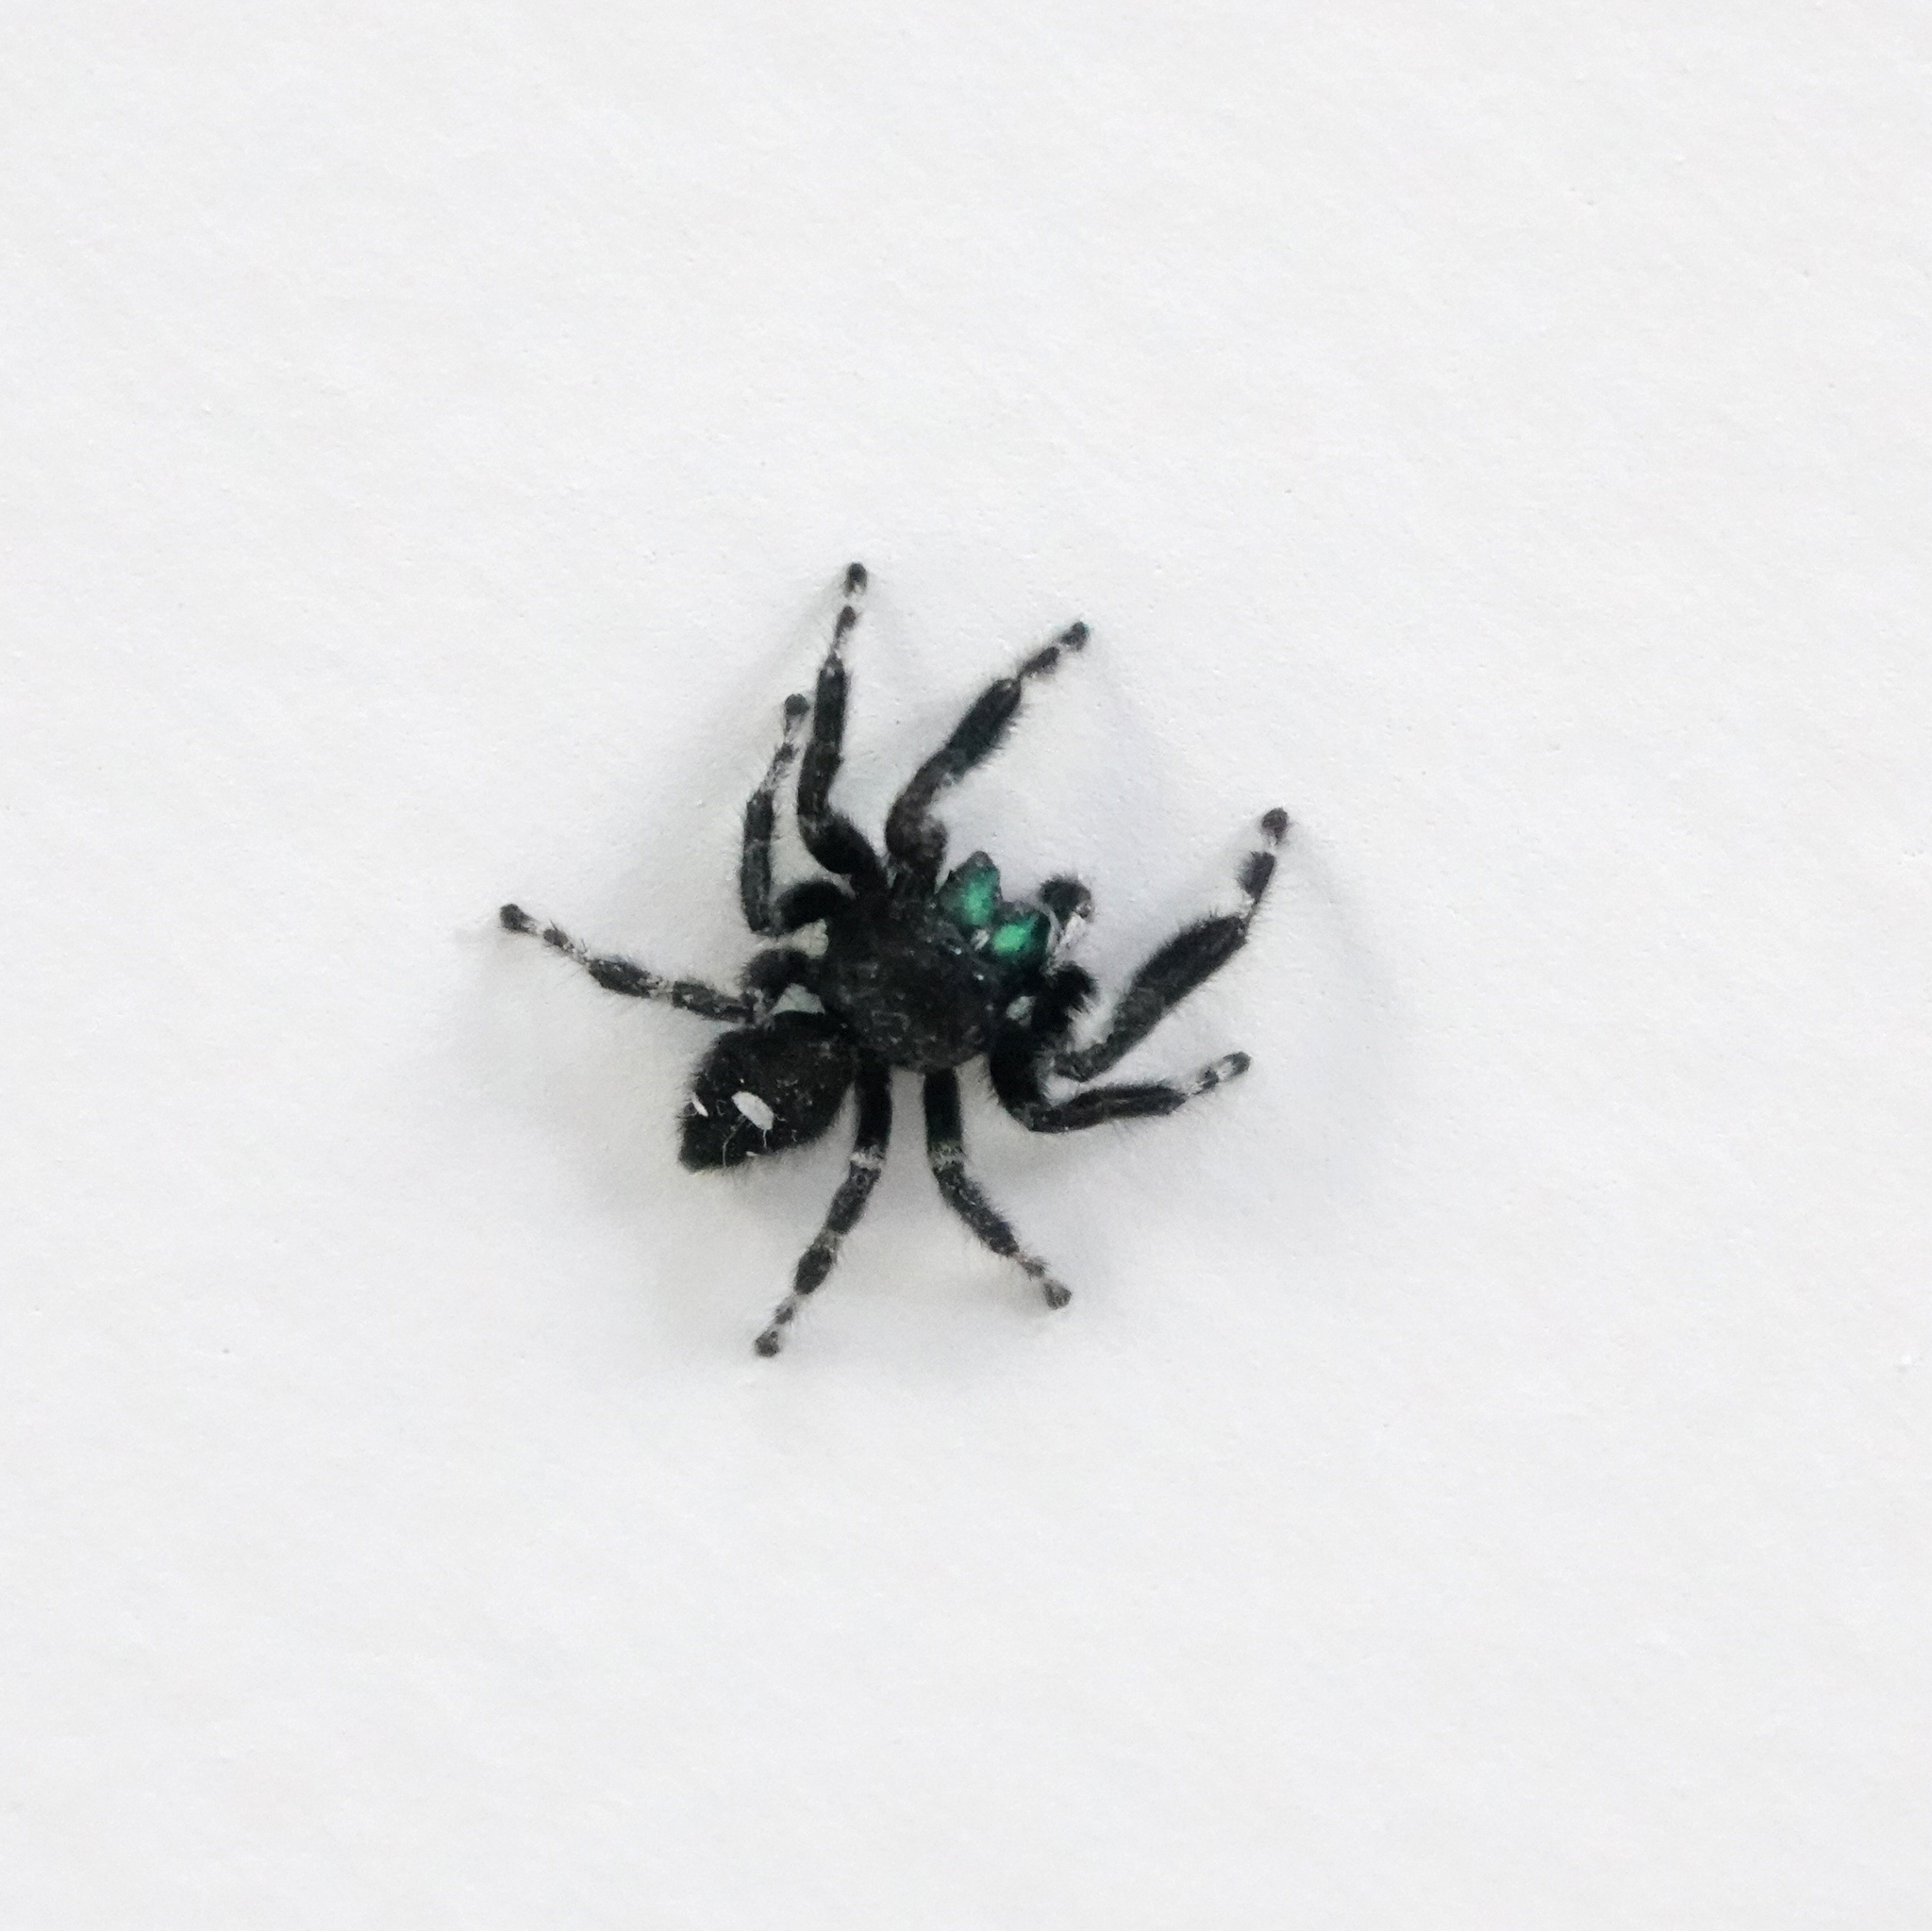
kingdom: Animalia
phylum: Arthropoda
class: Arachnida
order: Araneae
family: Salticidae
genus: Phidippus
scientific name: Phidippus audax
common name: Bold jumper
